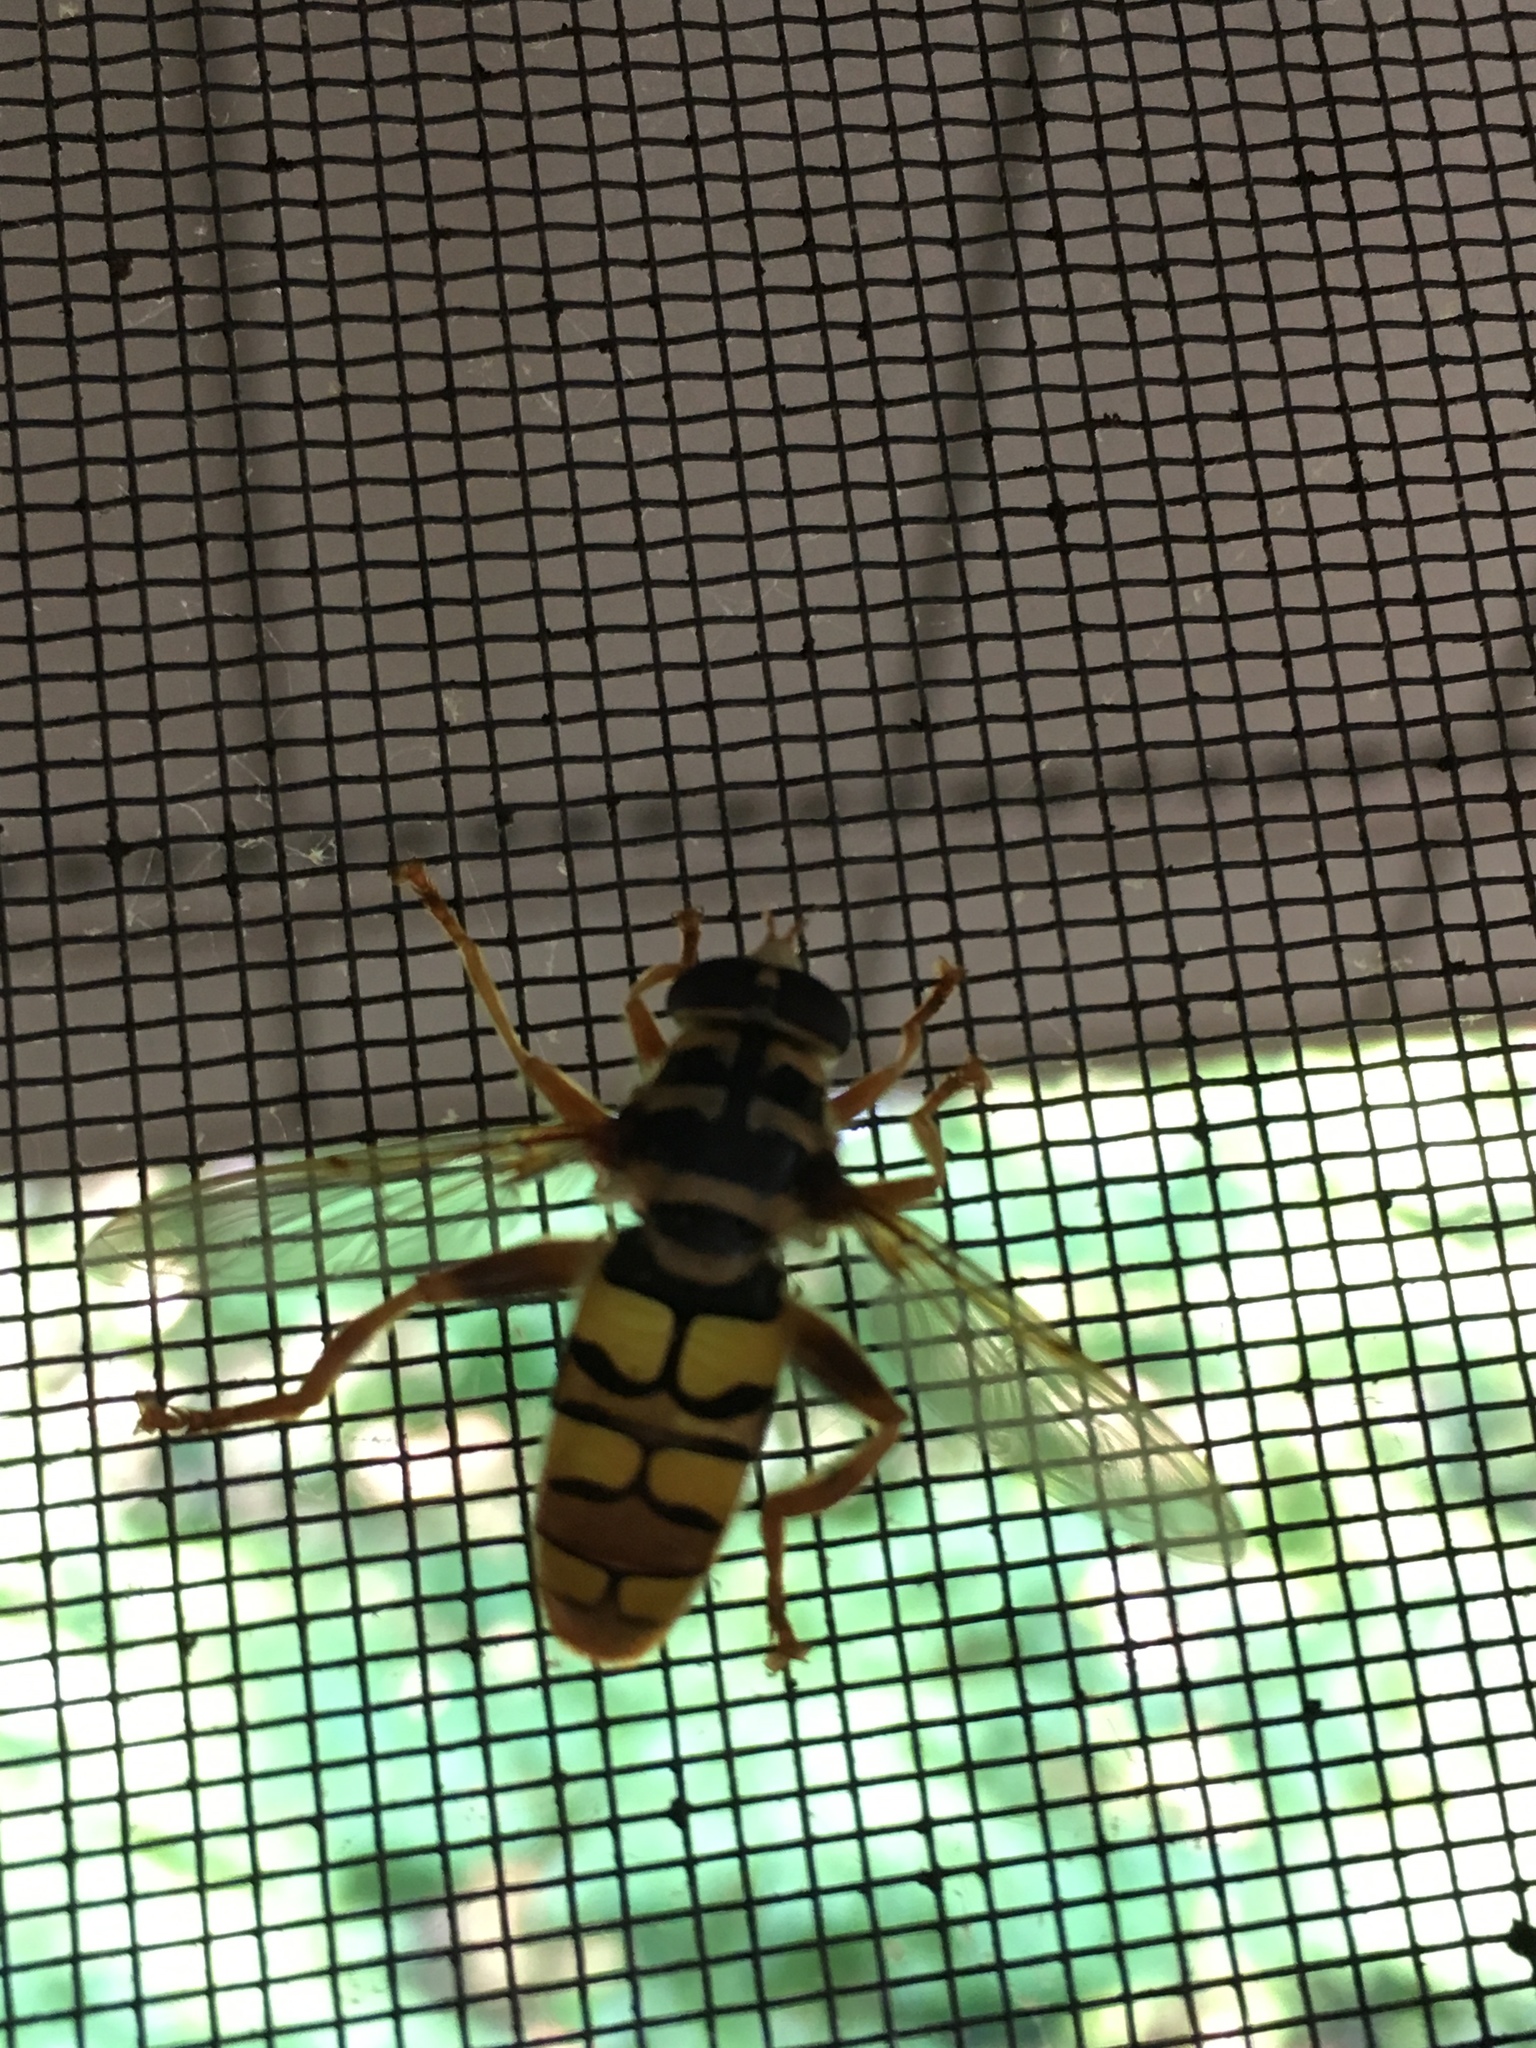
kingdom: Animalia
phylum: Arthropoda
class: Insecta
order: Diptera
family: Syrphidae
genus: Milesia
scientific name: Milesia virginiensis
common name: Virginia giant
